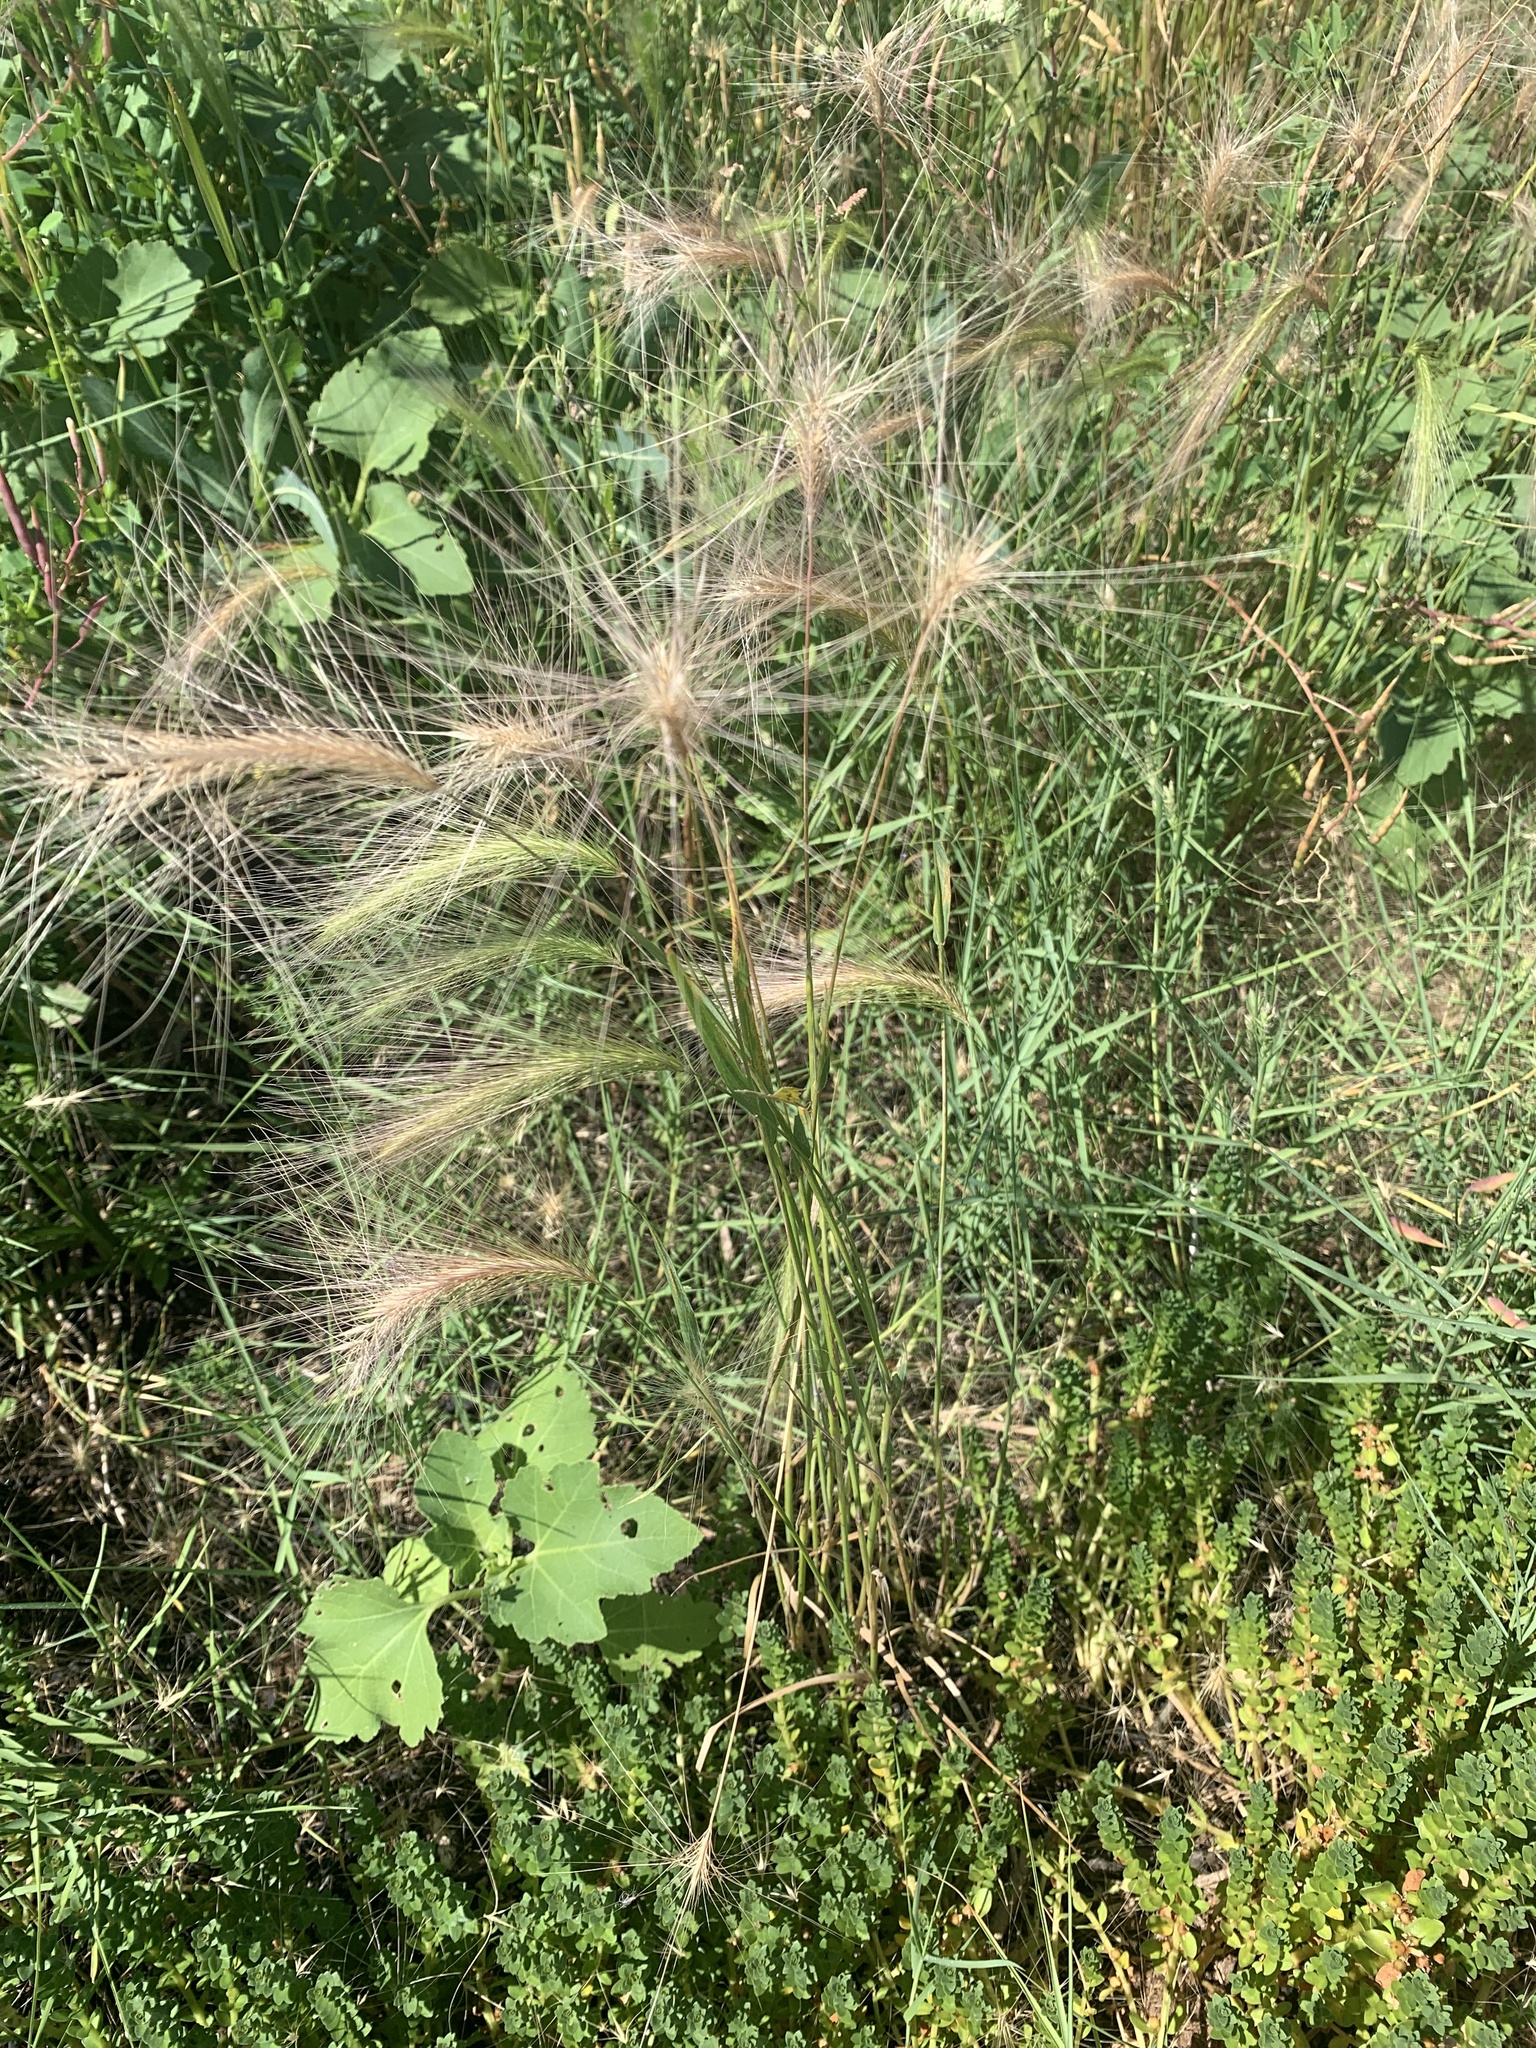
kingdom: Plantae
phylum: Tracheophyta
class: Liliopsida
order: Poales
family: Poaceae
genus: Hordeum
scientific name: Hordeum jubatum
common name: Foxtail barley
